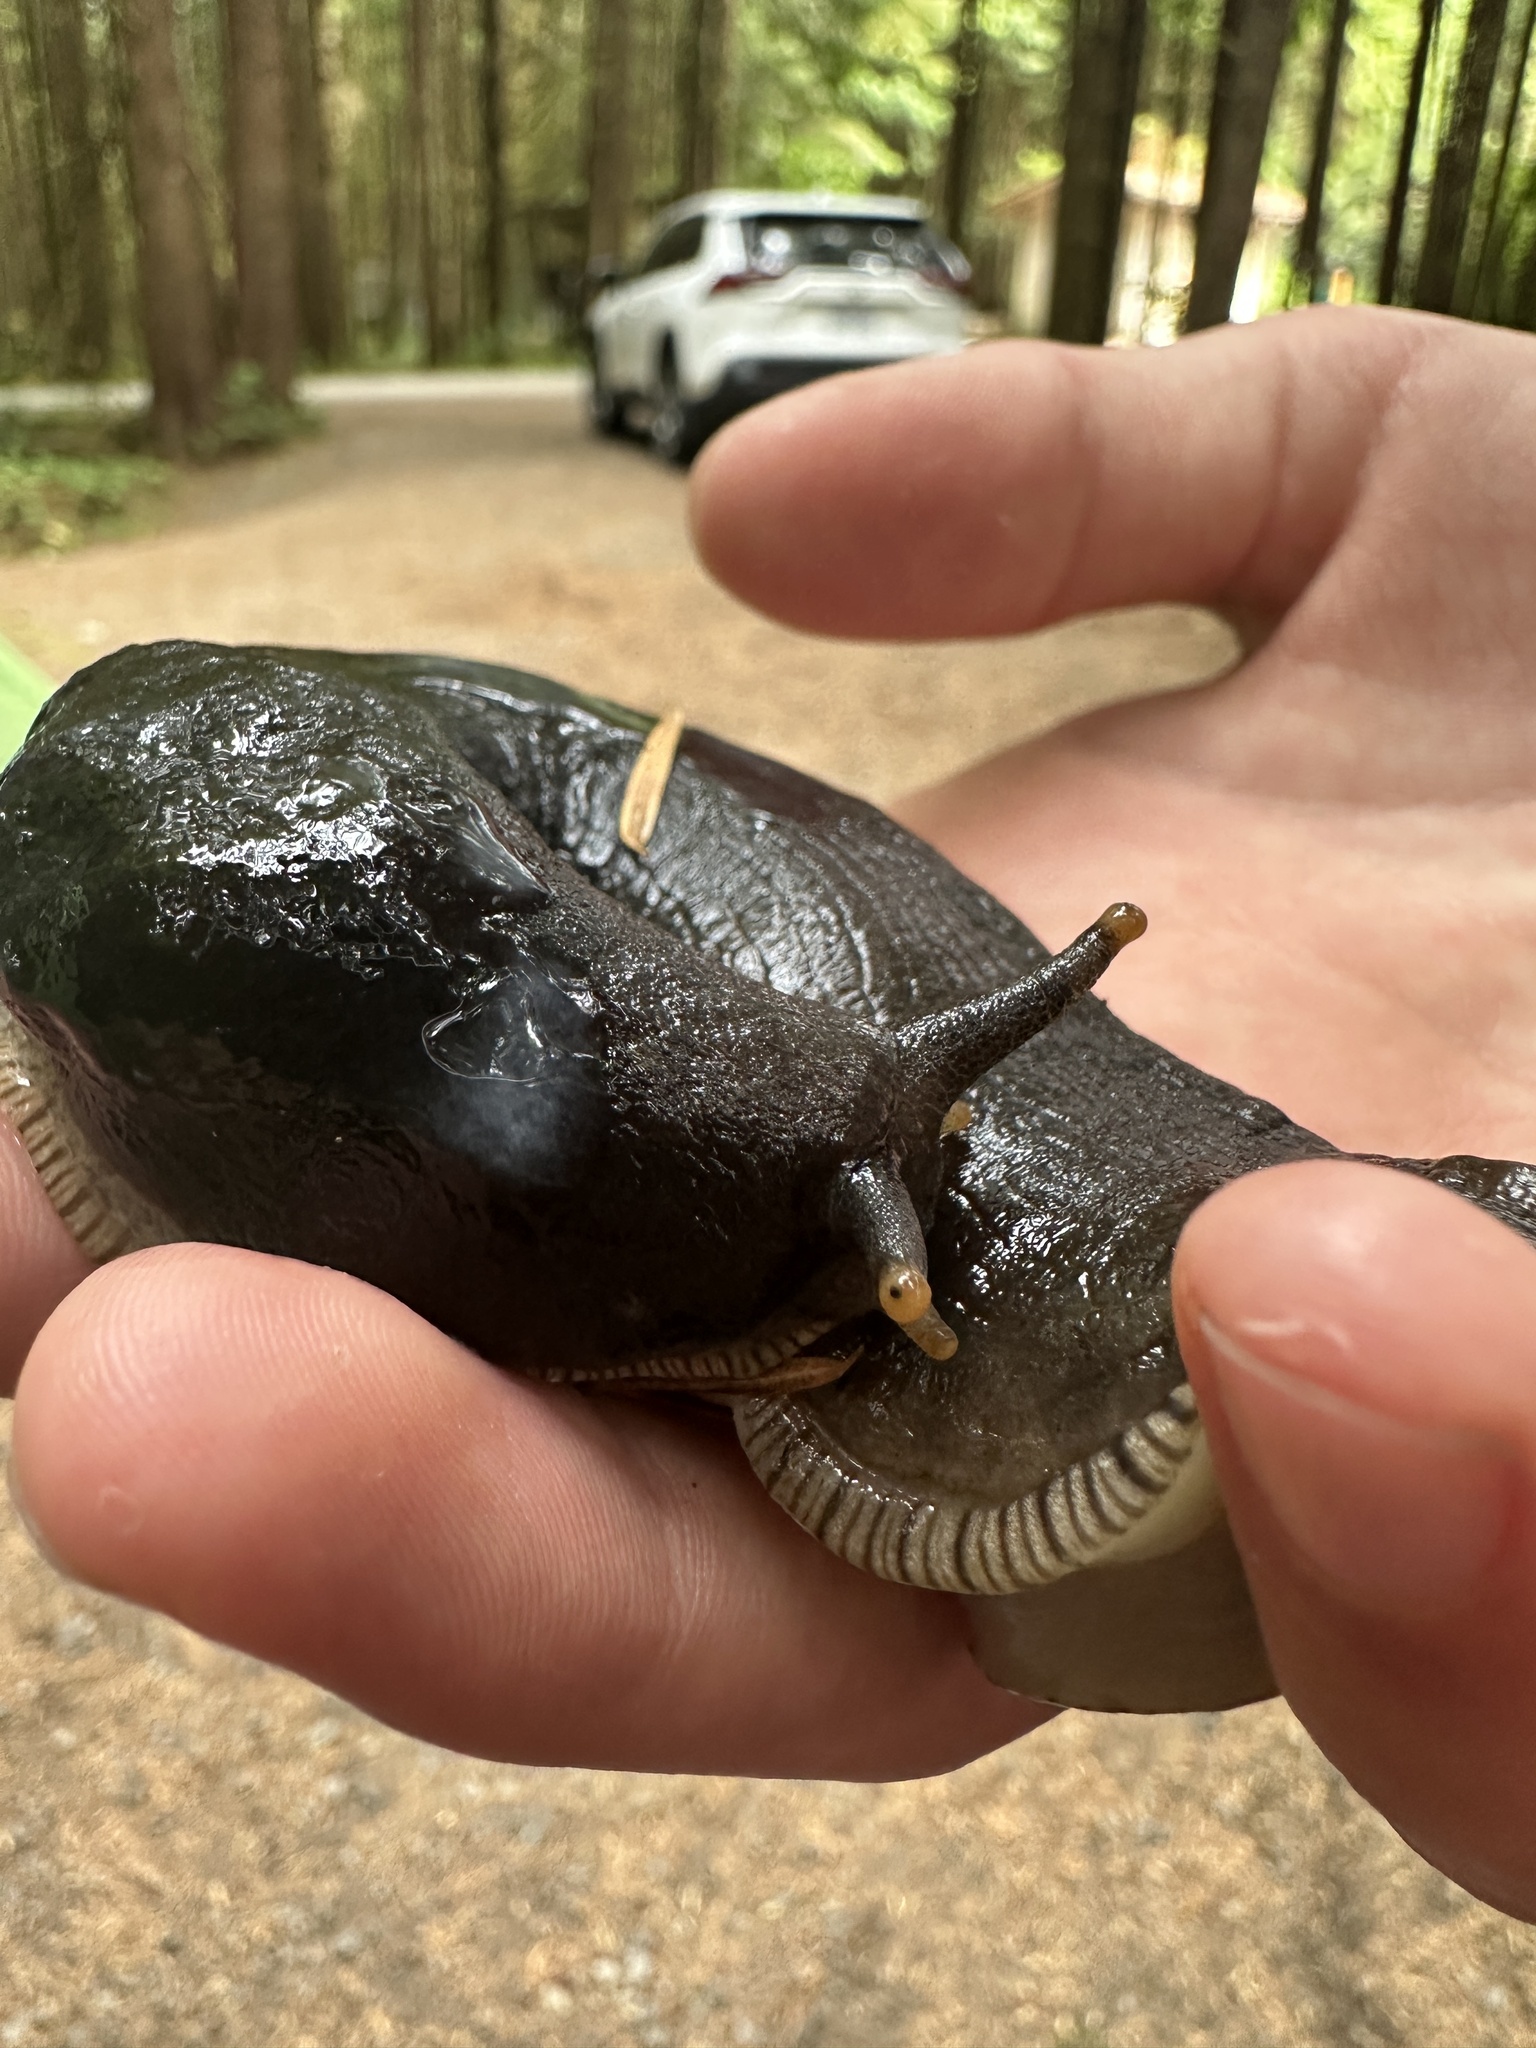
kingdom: Animalia
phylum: Mollusca
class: Gastropoda
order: Stylommatophora
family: Ariolimacidae
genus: Ariolimax
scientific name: Ariolimax columbianus
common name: Pacific banana slug
